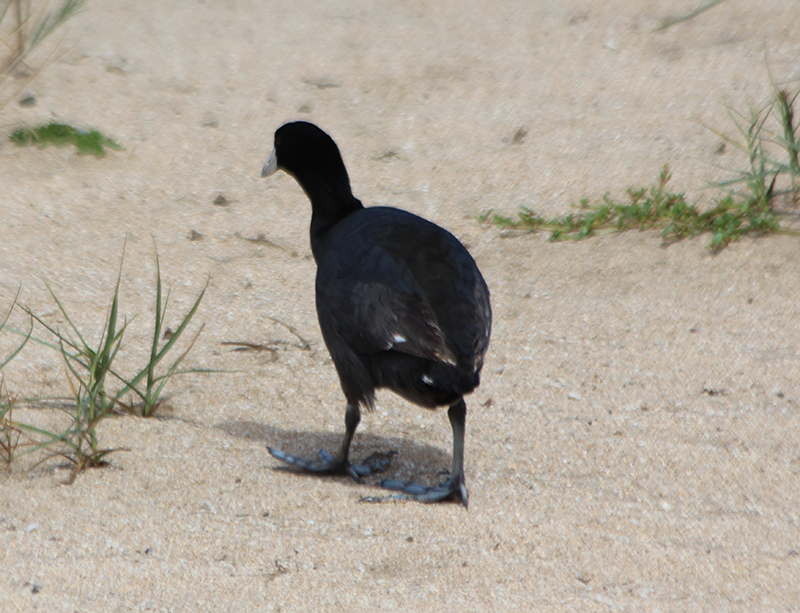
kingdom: Animalia
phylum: Chordata
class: Aves
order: Gruiformes
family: Rallidae
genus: Fulica
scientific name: Fulica alai
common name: Hawaiian coot
